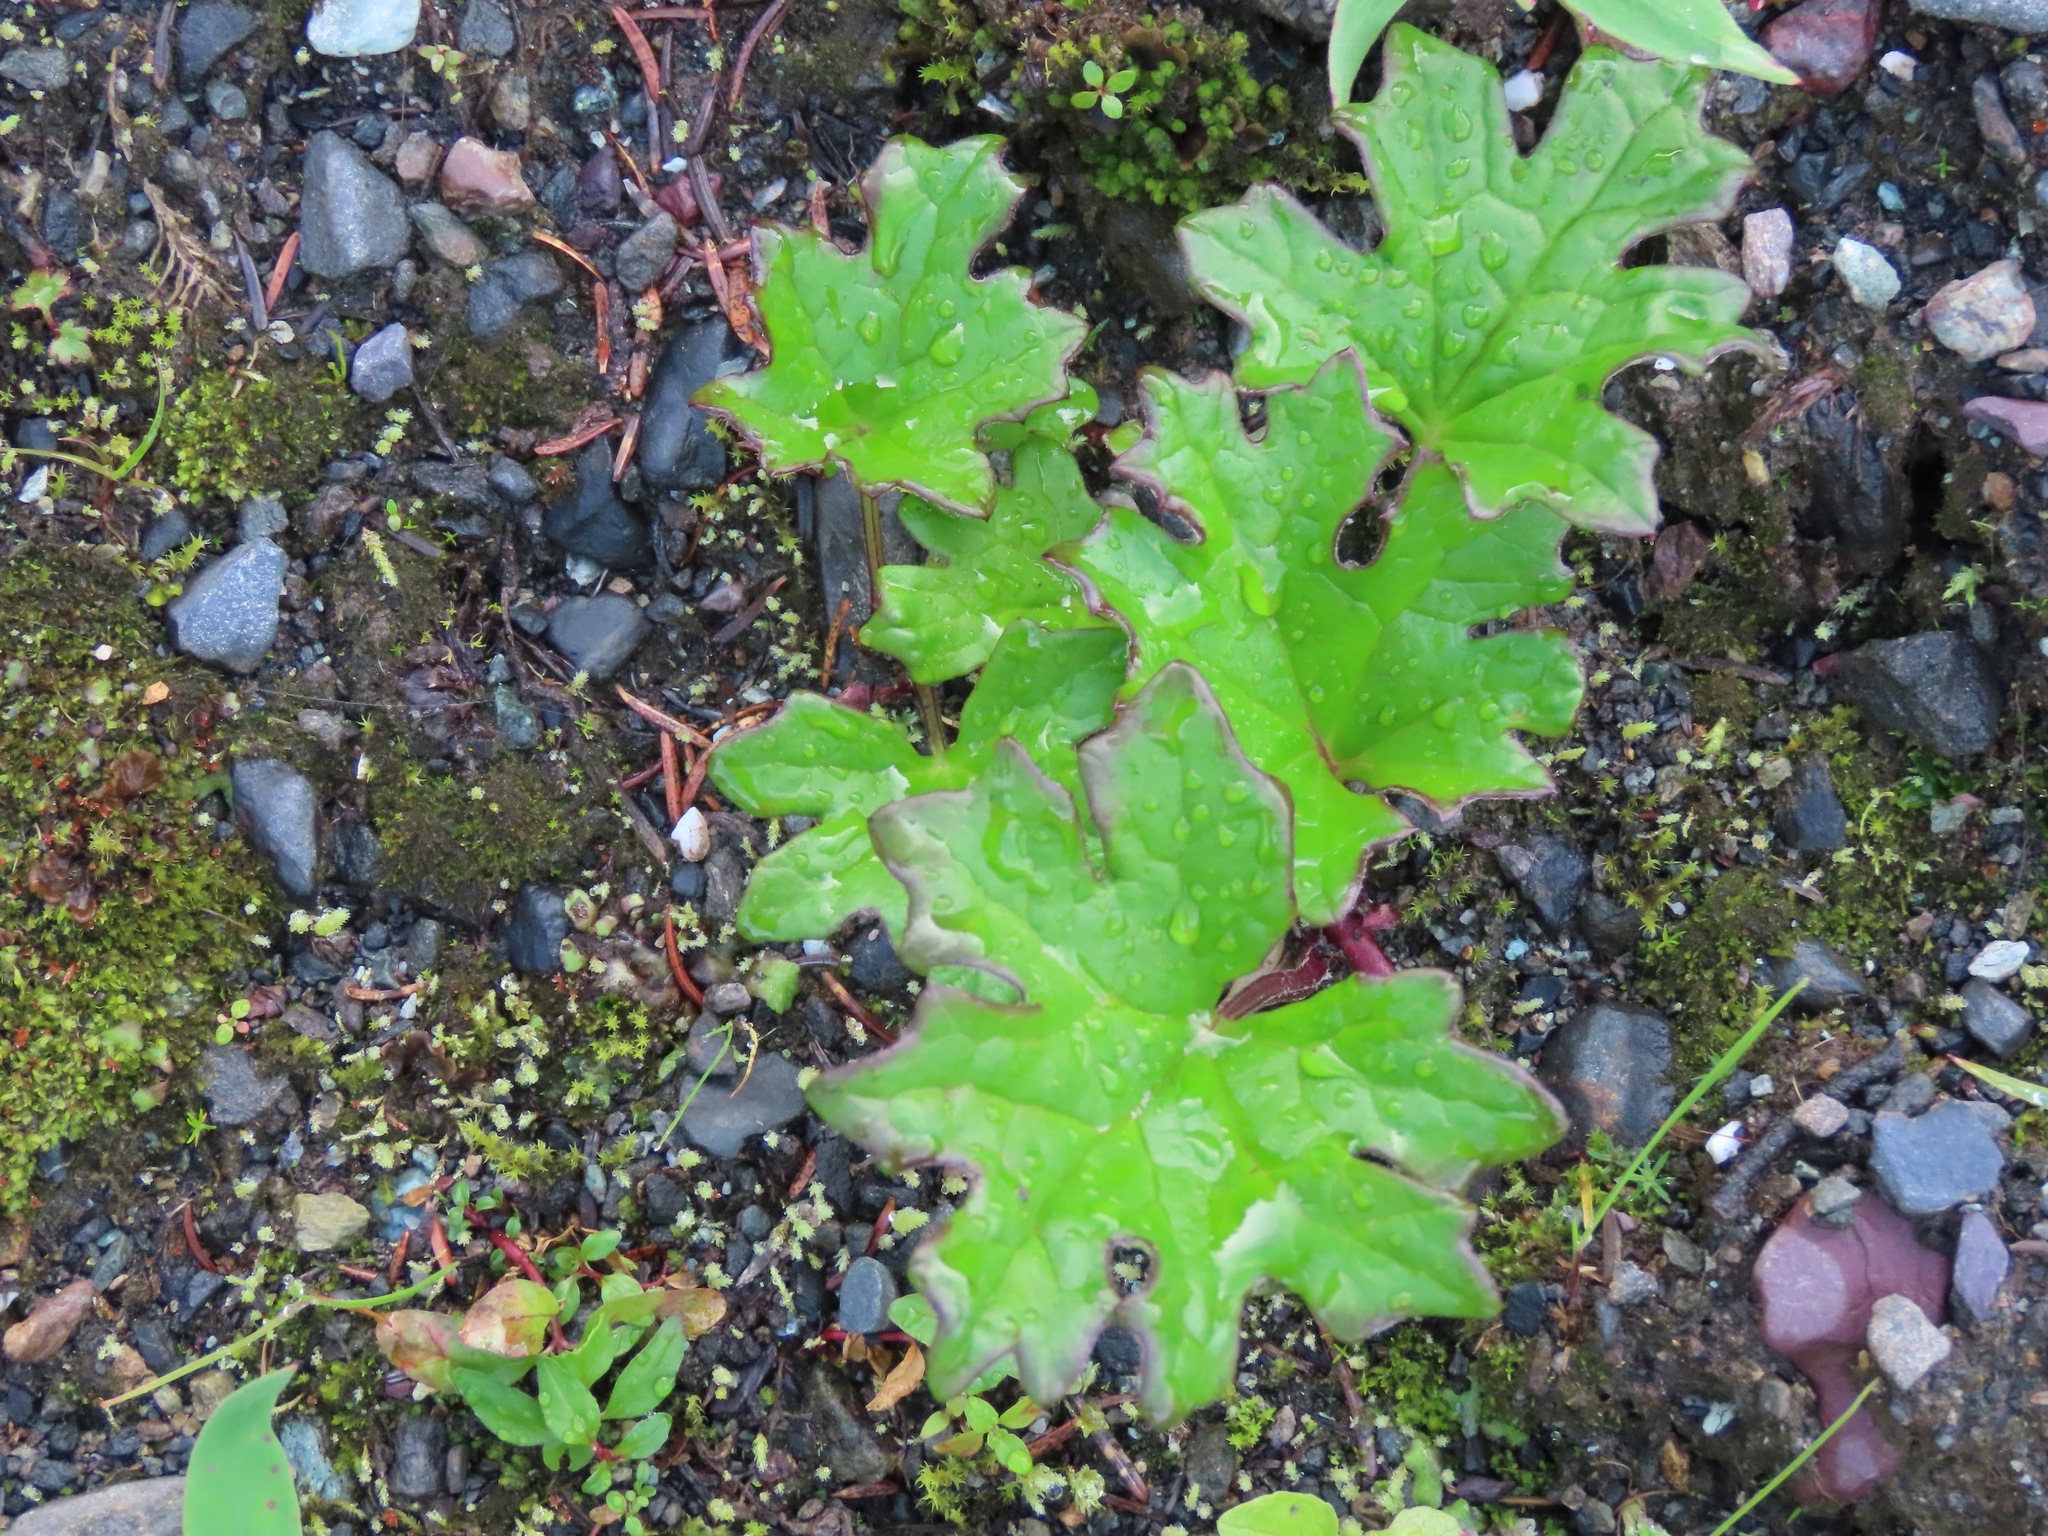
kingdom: Plantae
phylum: Tracheophyta
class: Magnoliopsida
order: Asterales
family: Asteraceae
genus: Petasites
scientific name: Petasites frigidus
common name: Arctic butterbur
